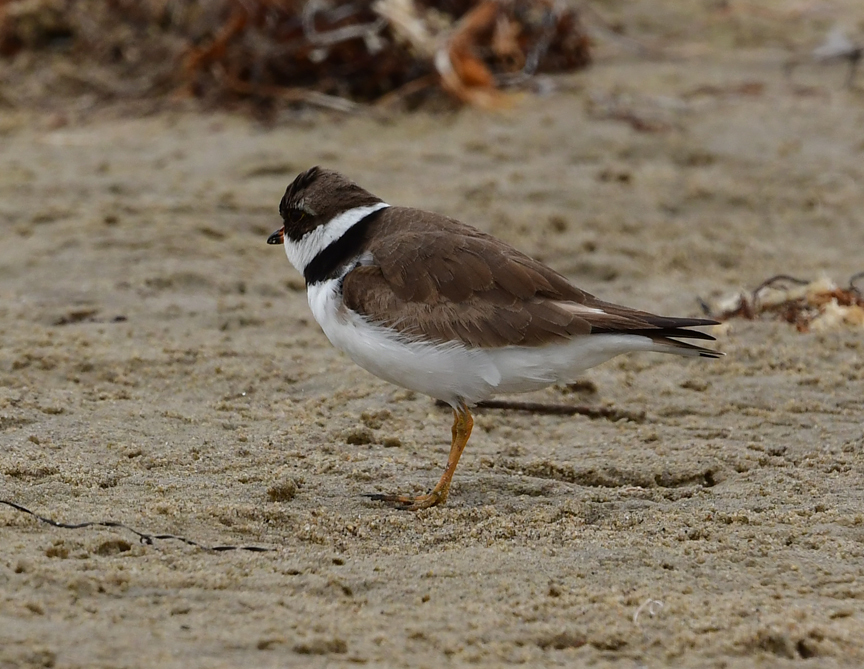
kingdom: Animalia
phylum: Chordata
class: Aves
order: Charadriiformes
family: Charadriidae
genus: Charadrius
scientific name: Charadrius semipalmatus
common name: Semipalmated plover
